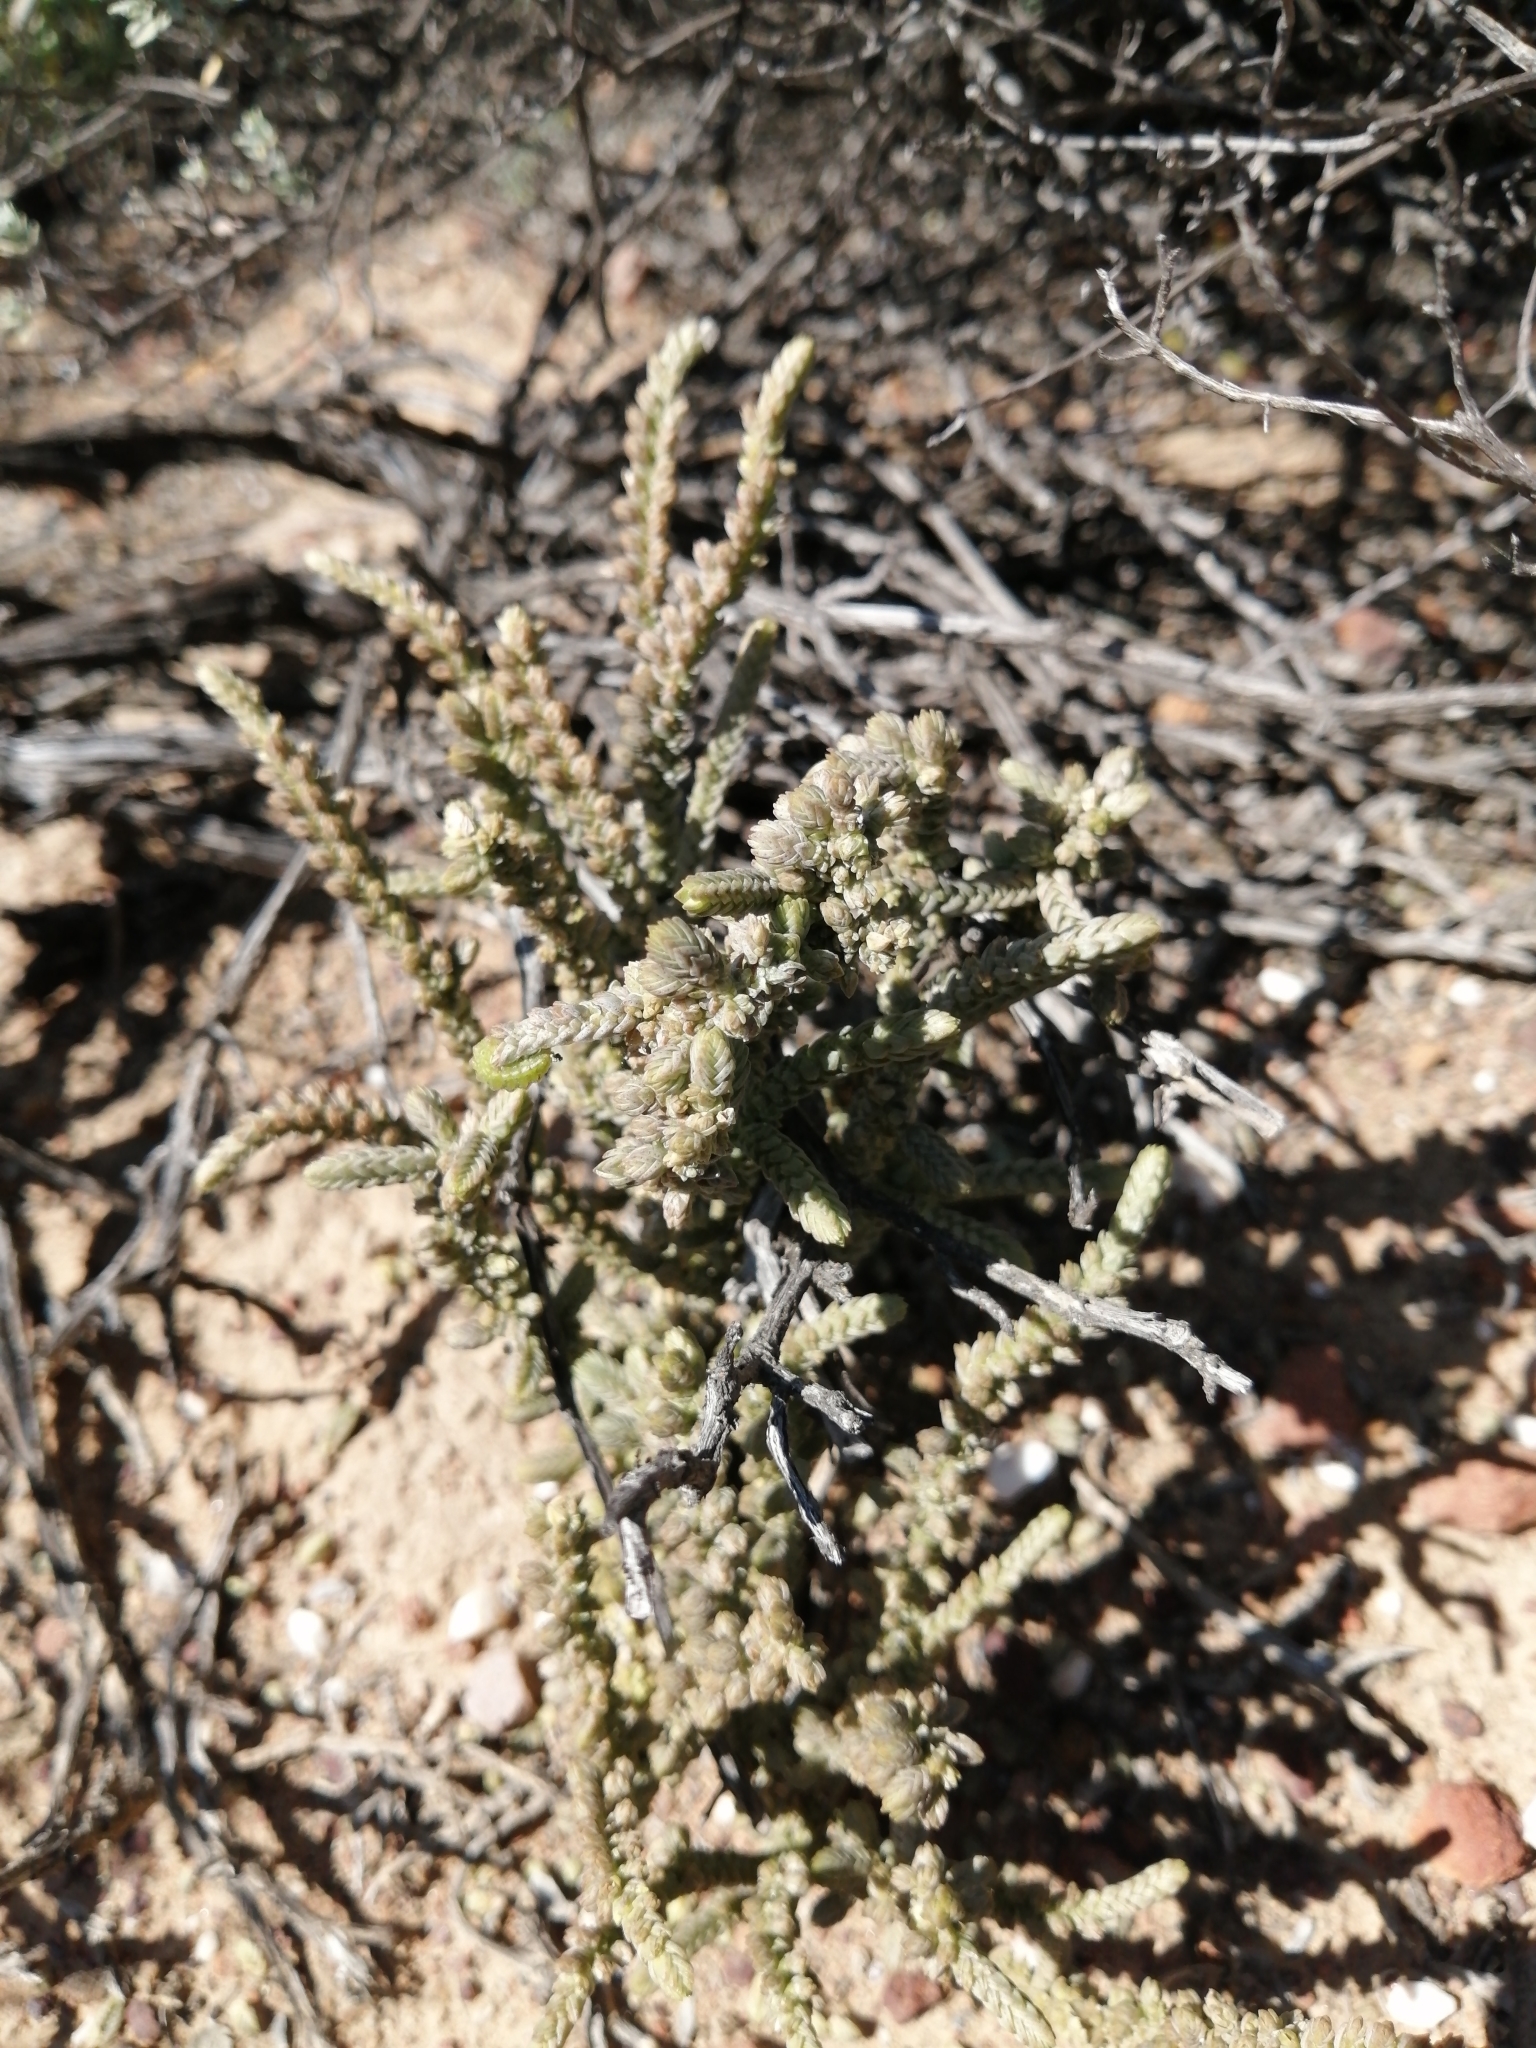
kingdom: Plantae
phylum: Tracheophyta
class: Magnoliopsida
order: Saxifragales
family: Crassulaceae
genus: Crassula
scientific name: Crassula muscosa
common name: Toy-cypress
